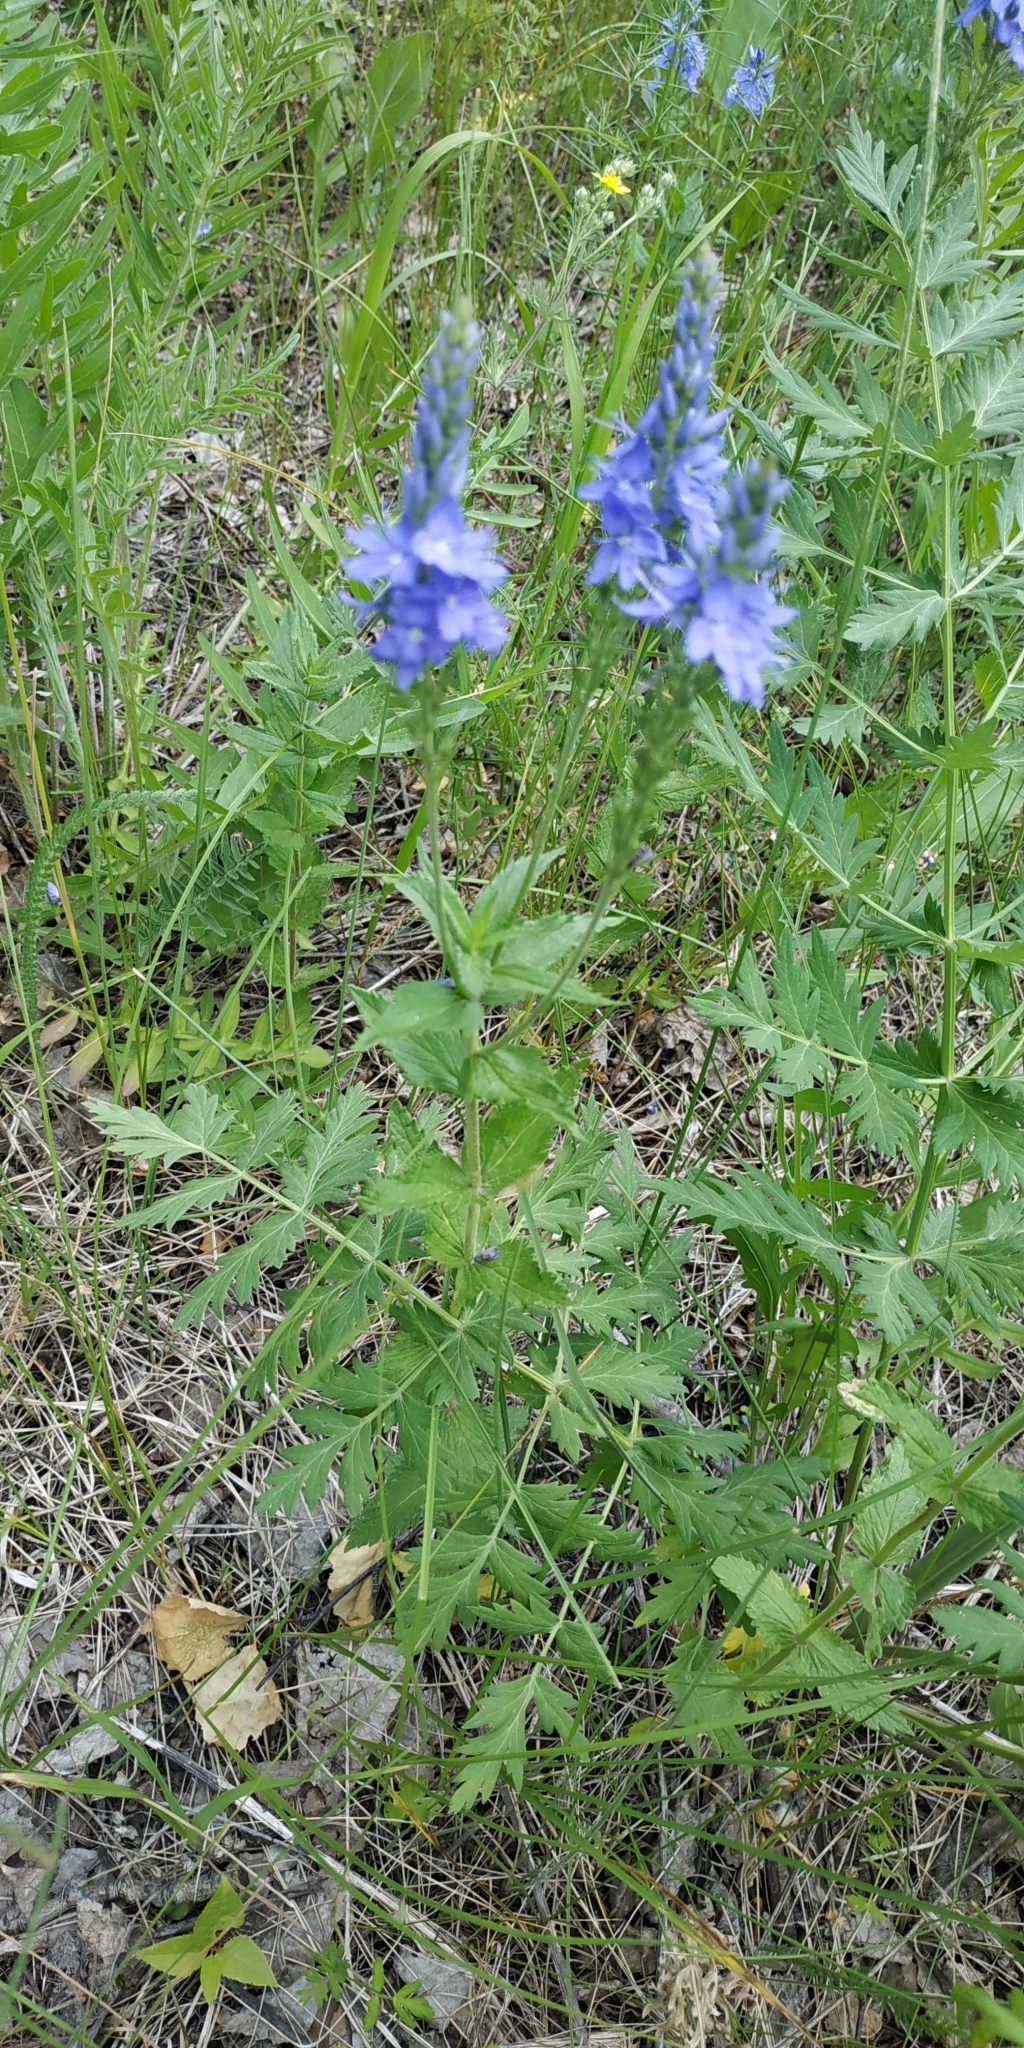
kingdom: Plantae
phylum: Tracheophyta
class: Magnoliopsida
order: Lamiales
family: Plantaginaceae
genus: Veronica
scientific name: Veronica teucrium
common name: Large speedwell
